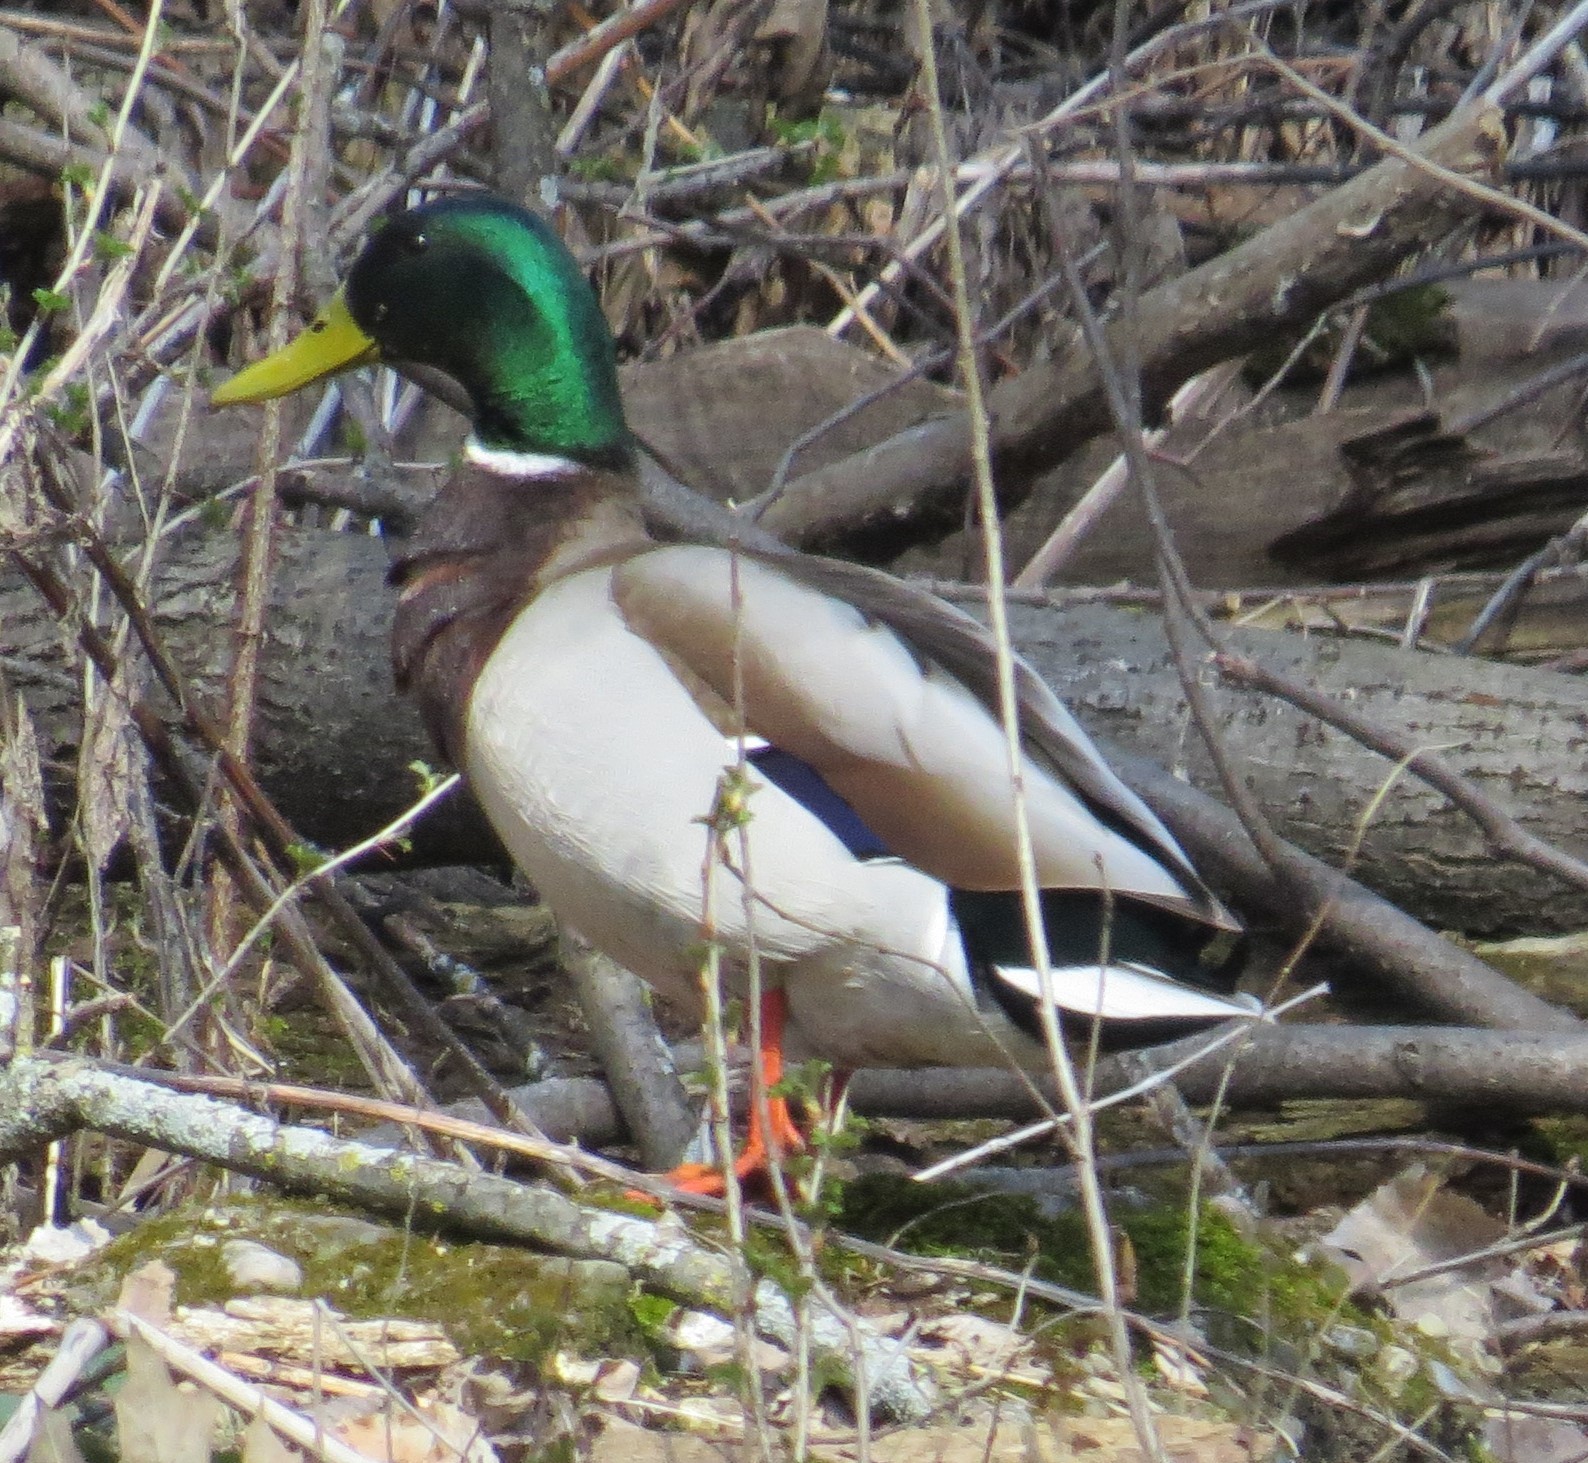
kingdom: Animalia
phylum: Chordata
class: Aves
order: Anseriformes
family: Anatidae
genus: Anas
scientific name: Anas platyrhynchos
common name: Mallard
